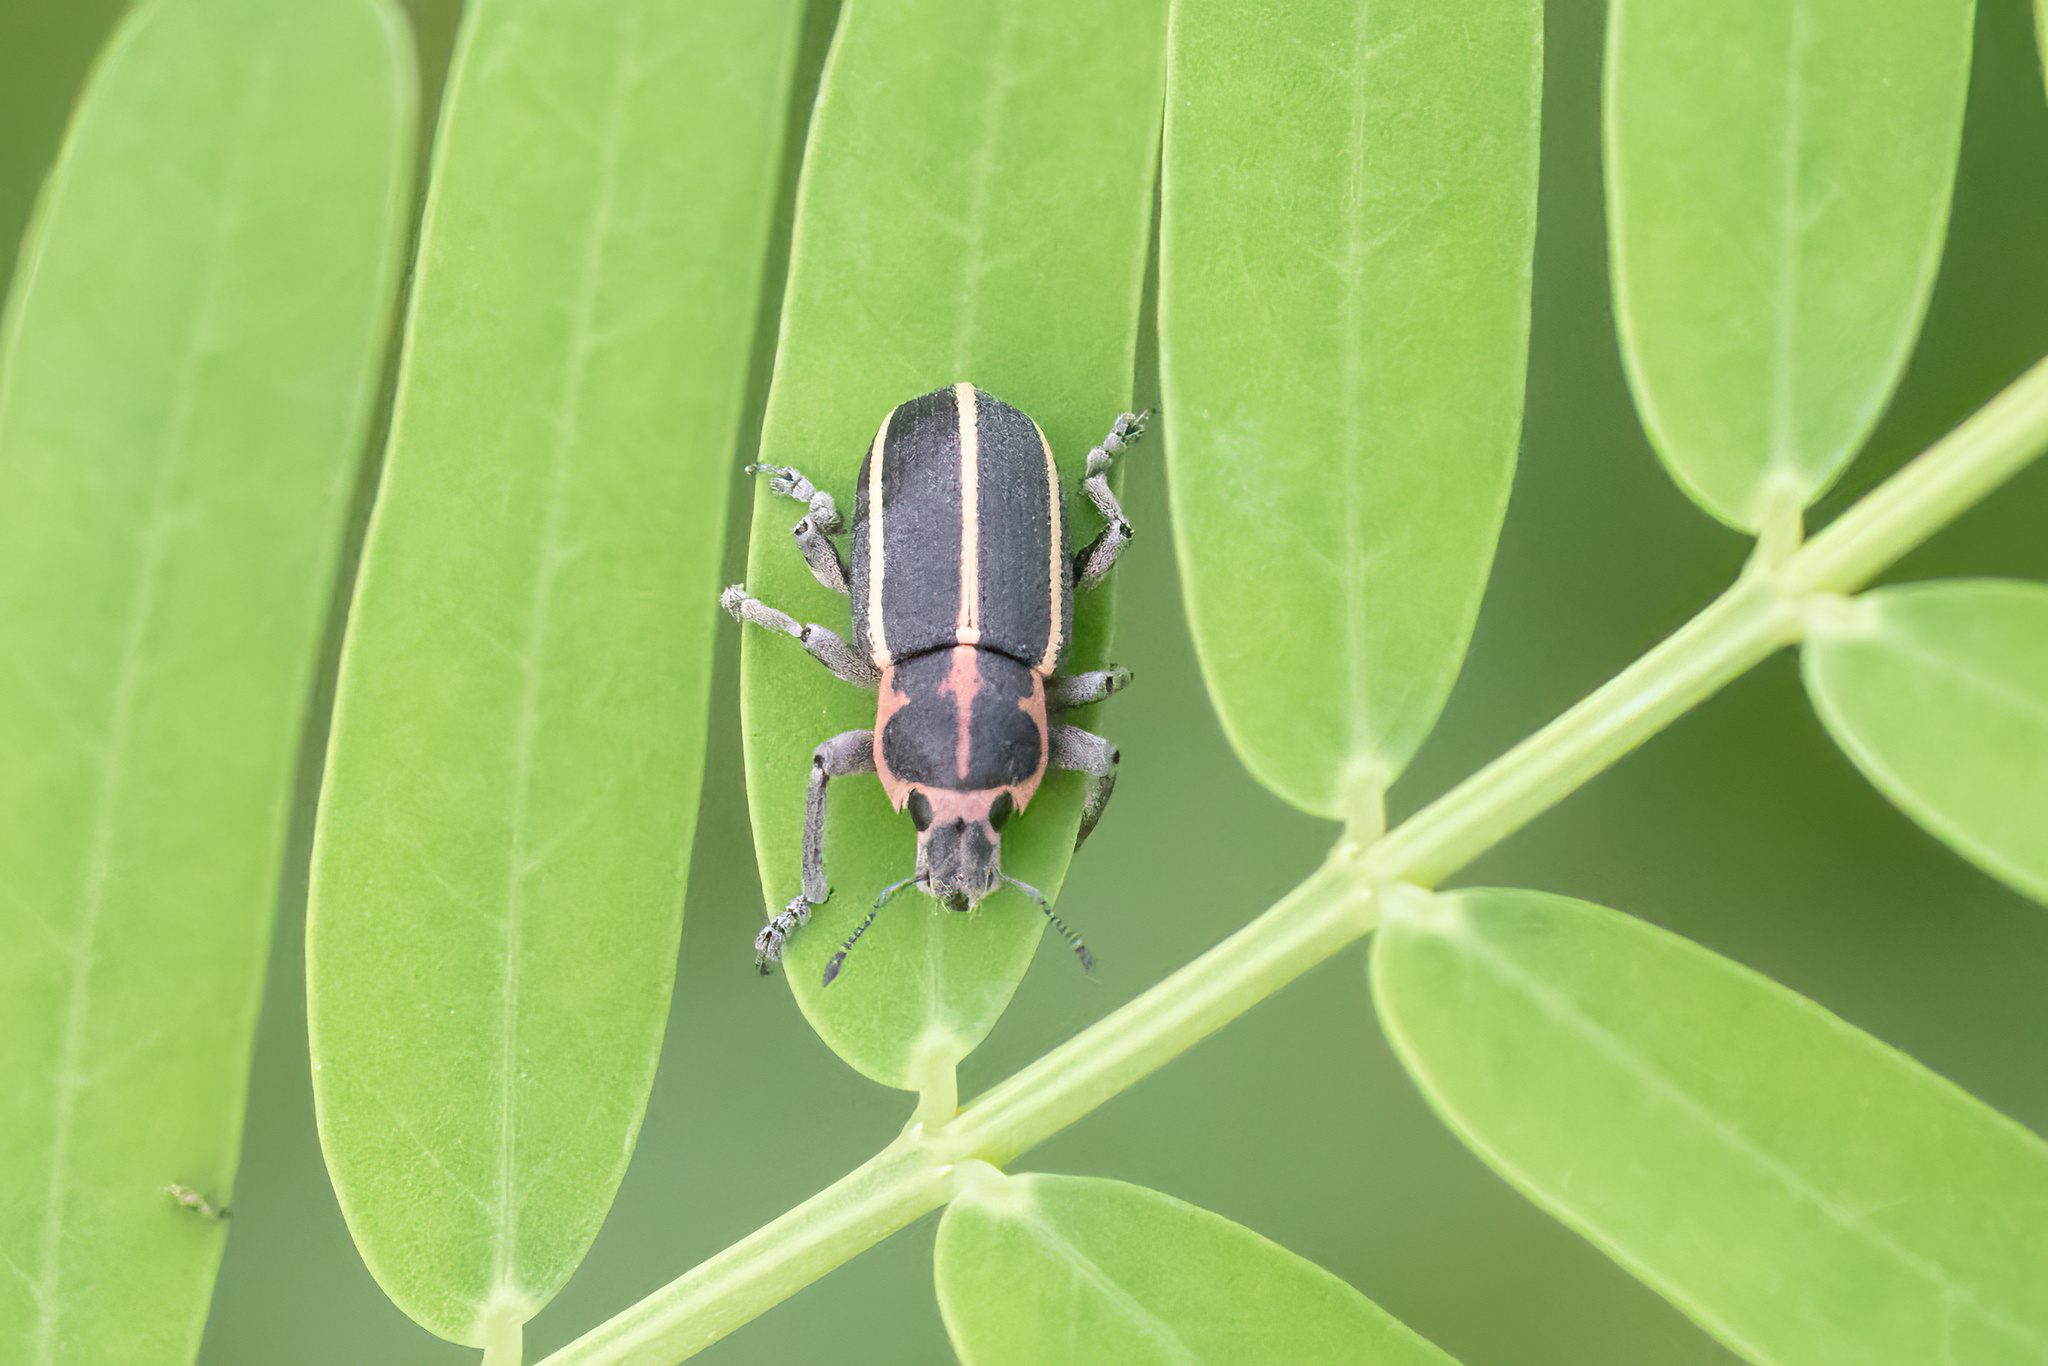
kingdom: Animalia
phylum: Arthropoda
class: Insecta
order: Coleoptera
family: Curculionidae
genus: Eudiagogus
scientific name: Eudiagogus maryae
